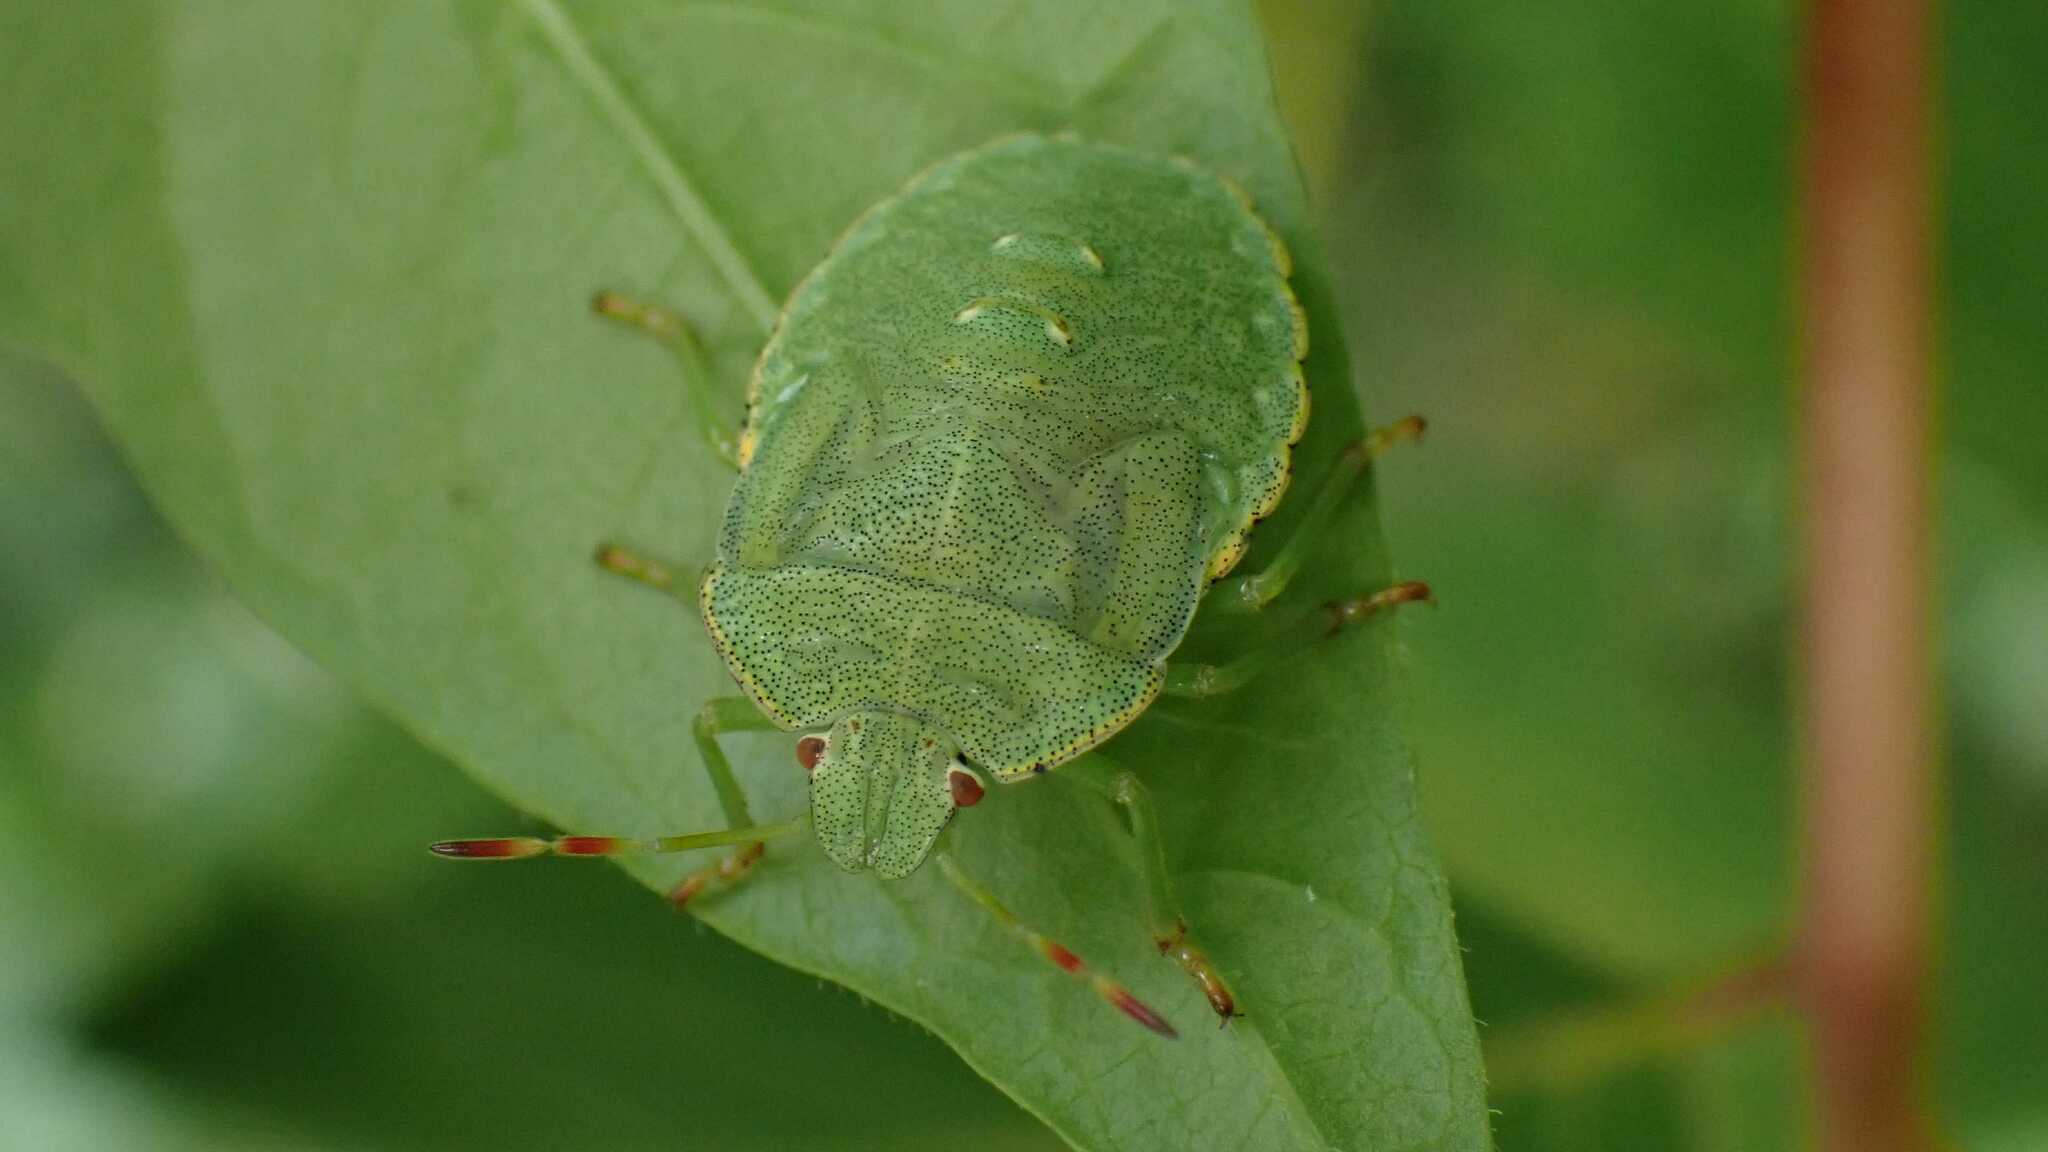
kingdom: Animalia
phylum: Arthropoda
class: Insecta
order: Hemiptera
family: Pentatomidae
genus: Palomena
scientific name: Palomena prasina
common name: Green shieldbug
